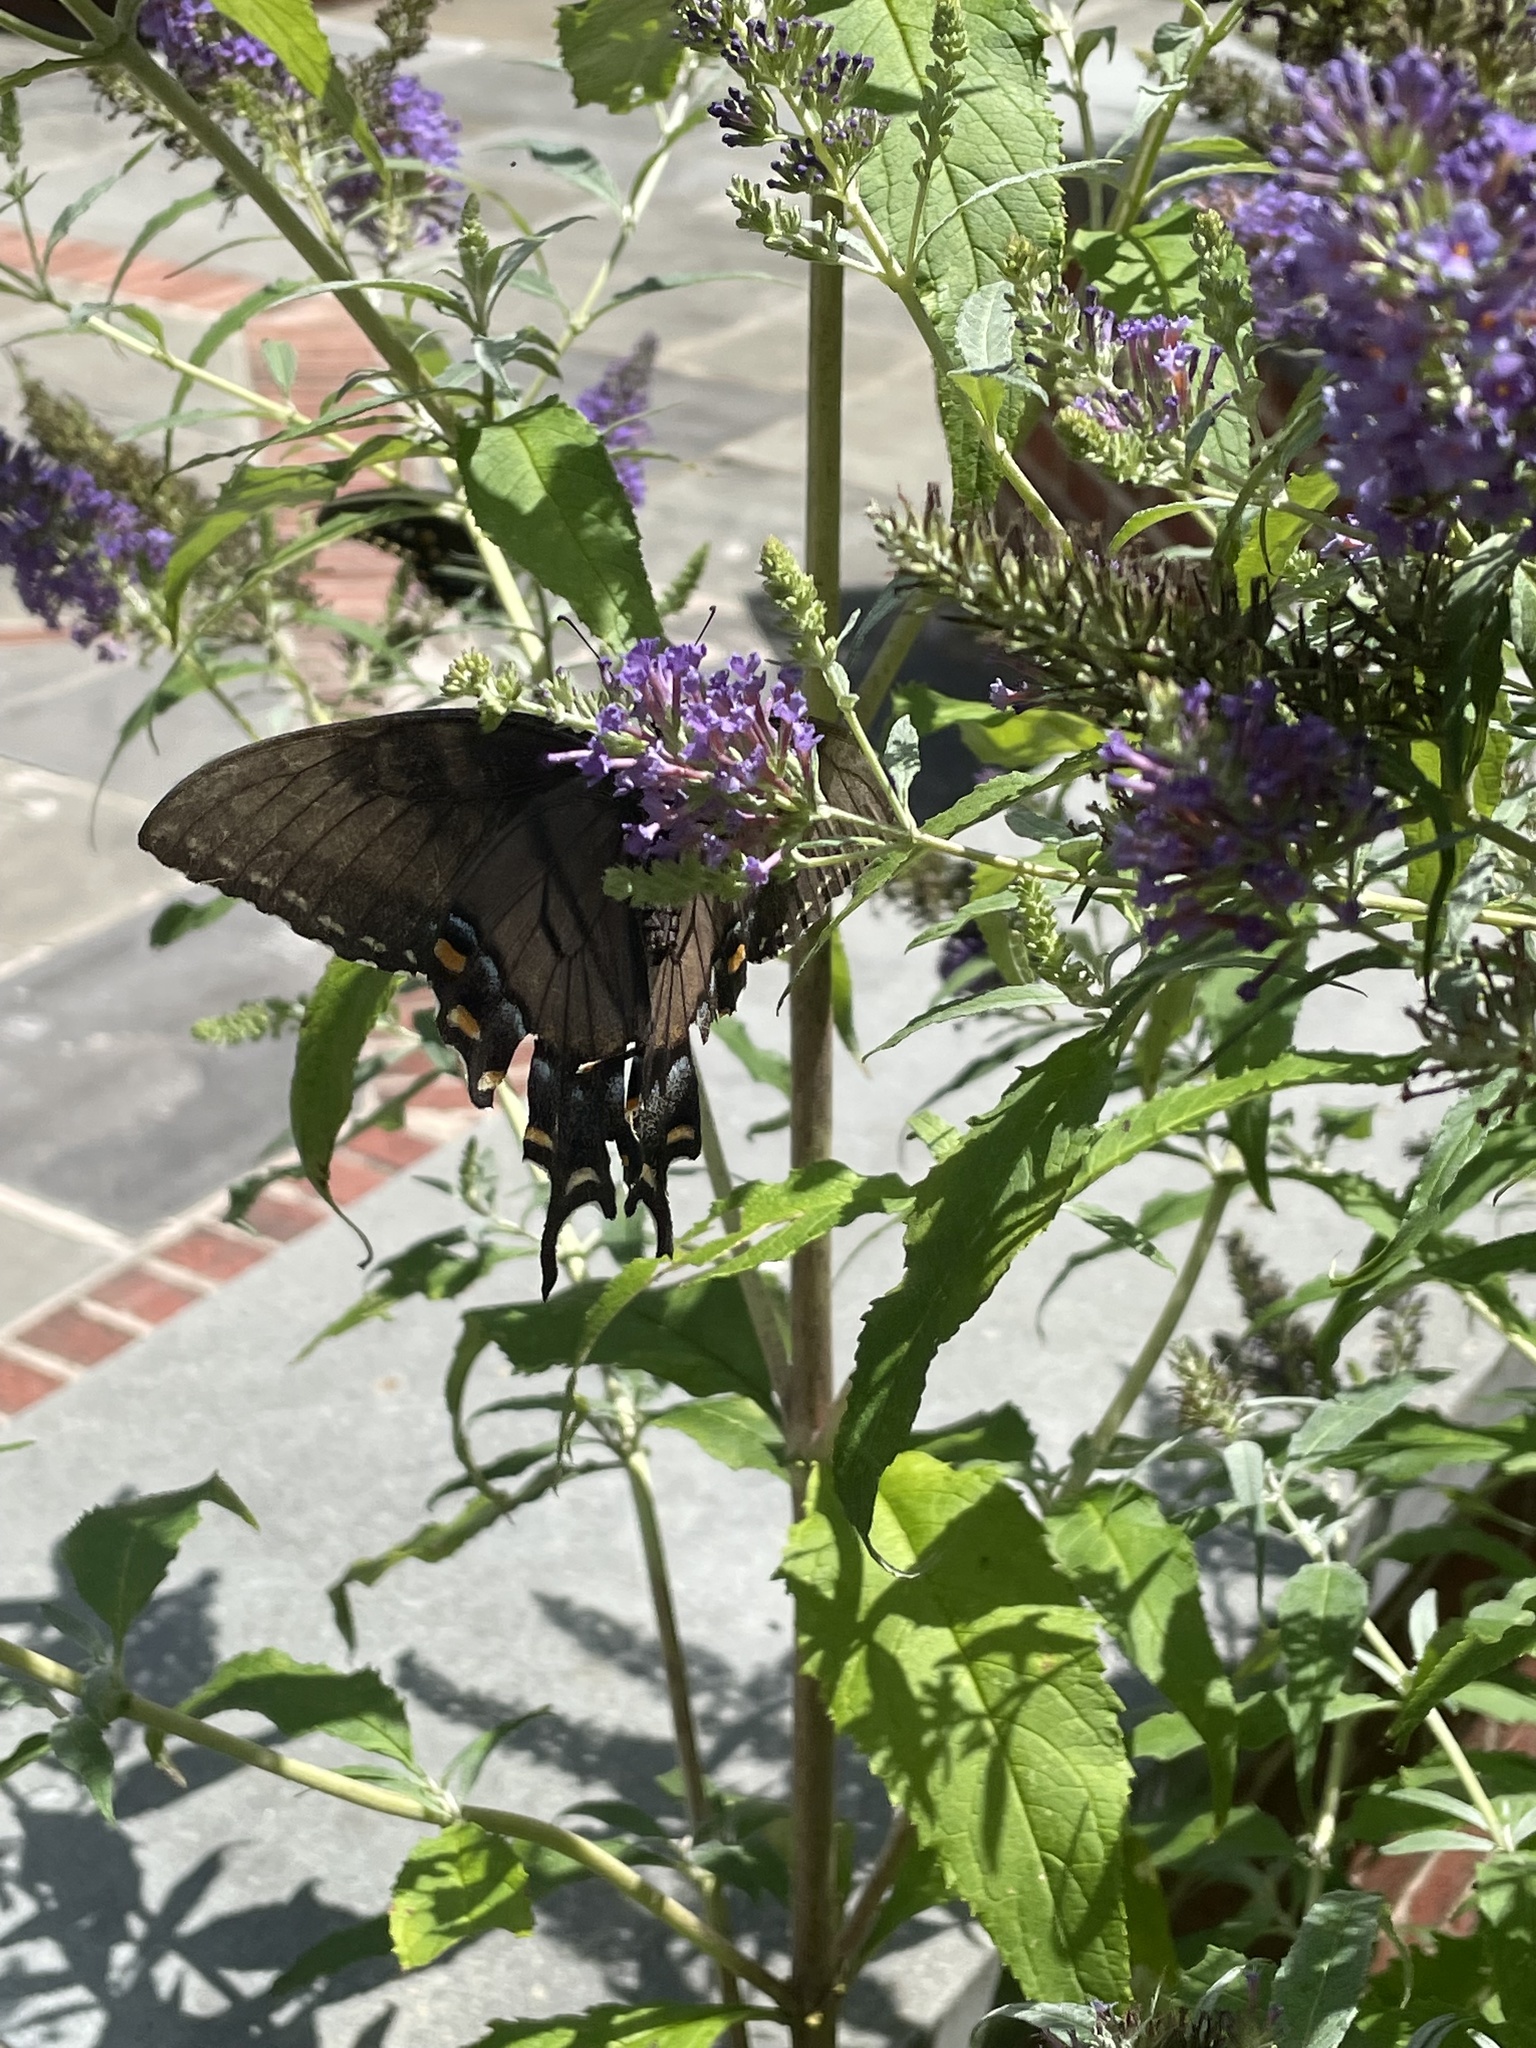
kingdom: Animalia
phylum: Arthropoda
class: Insecta
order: Lepidoptera
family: Papilionidae
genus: Papilio
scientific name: Papilio glaucus
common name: Tiger swallowtail
